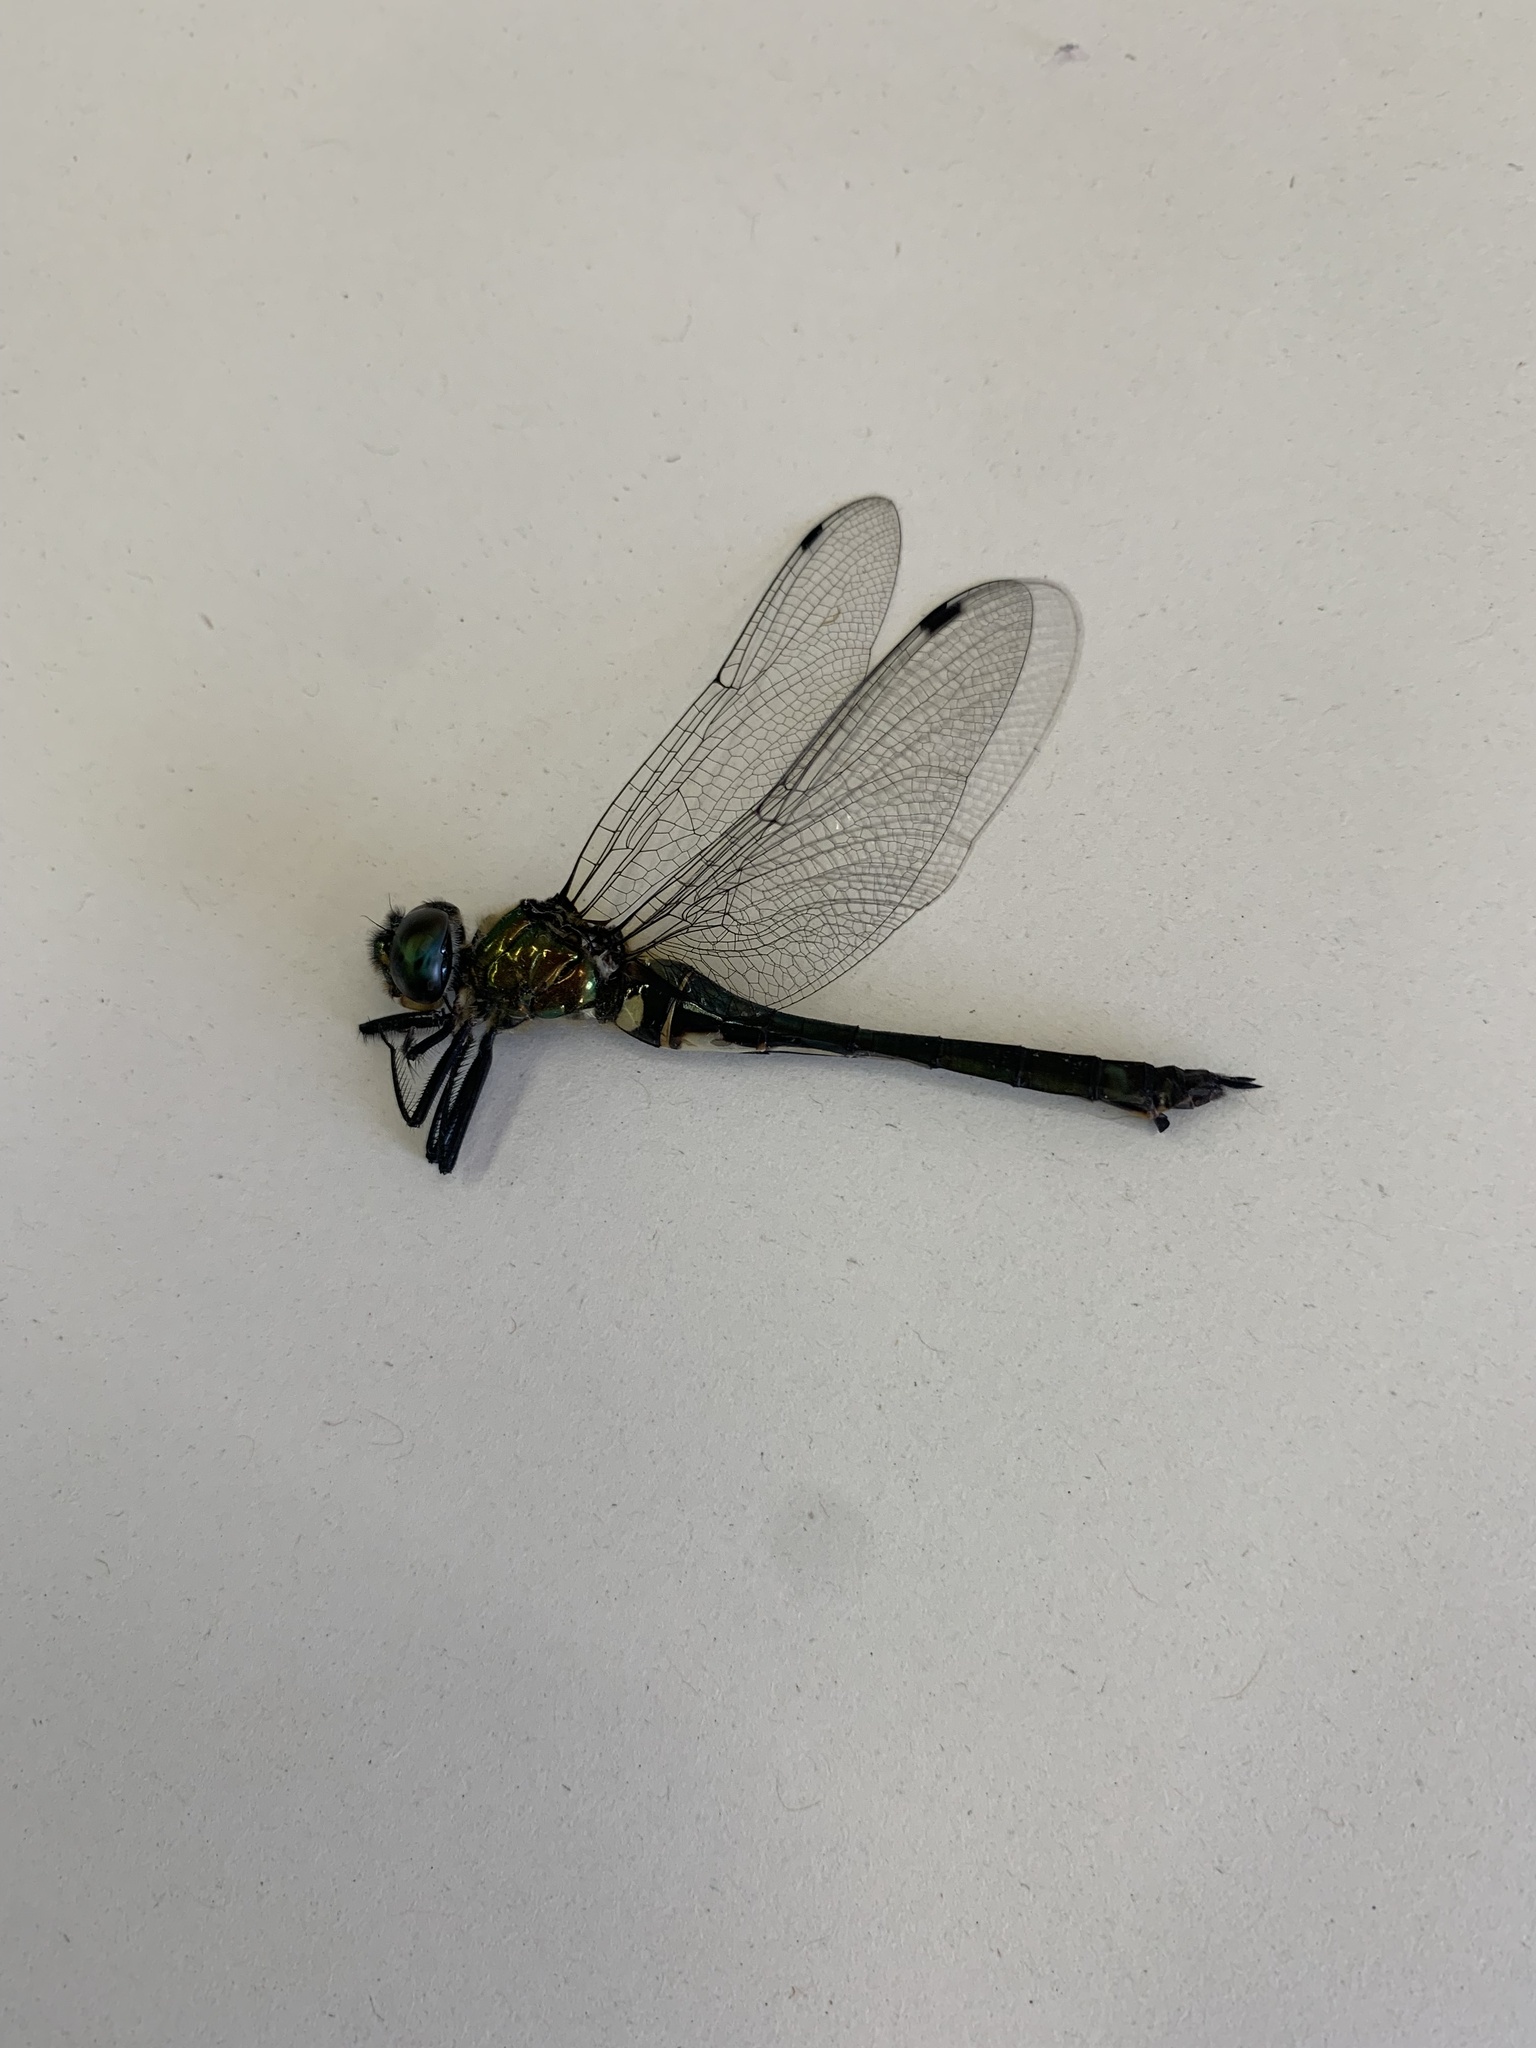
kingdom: Animalia
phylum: Arthropoda
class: Insecta
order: Odonata
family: Corduliidae
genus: Somatochlora
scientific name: Somatochlora uchidai
